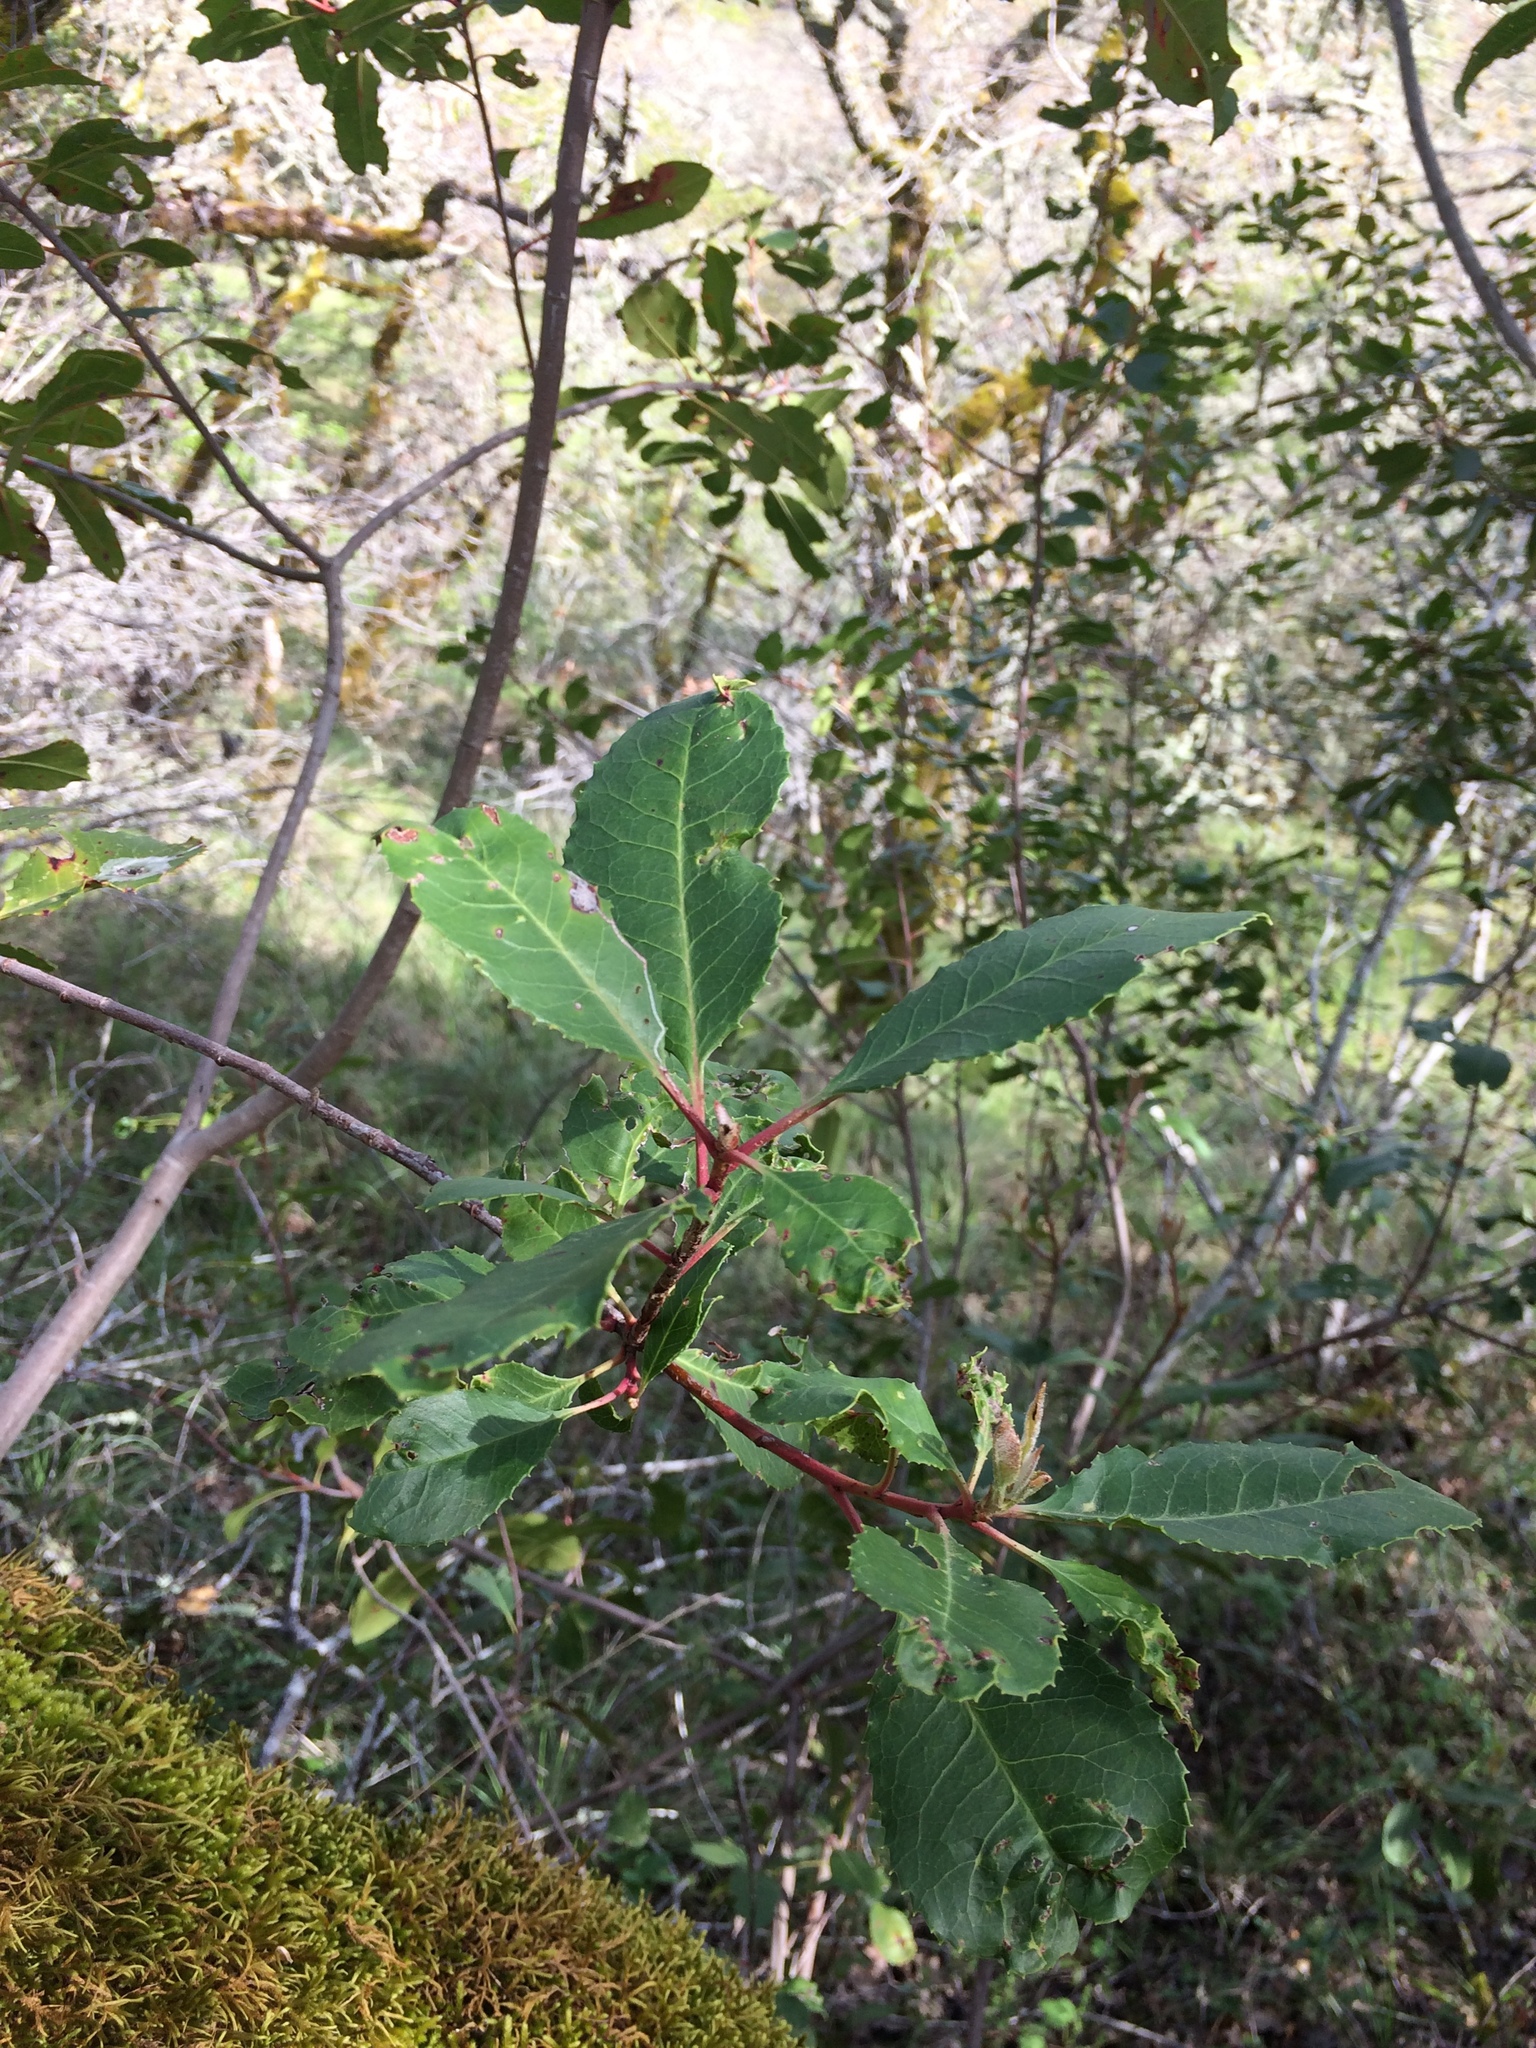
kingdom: Plantae
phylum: Tracheophyta
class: Magnoliopsida
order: Rosales
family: Rosaceae
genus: Heteromeles
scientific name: Heteromeles arbutifolia
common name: California-holly
